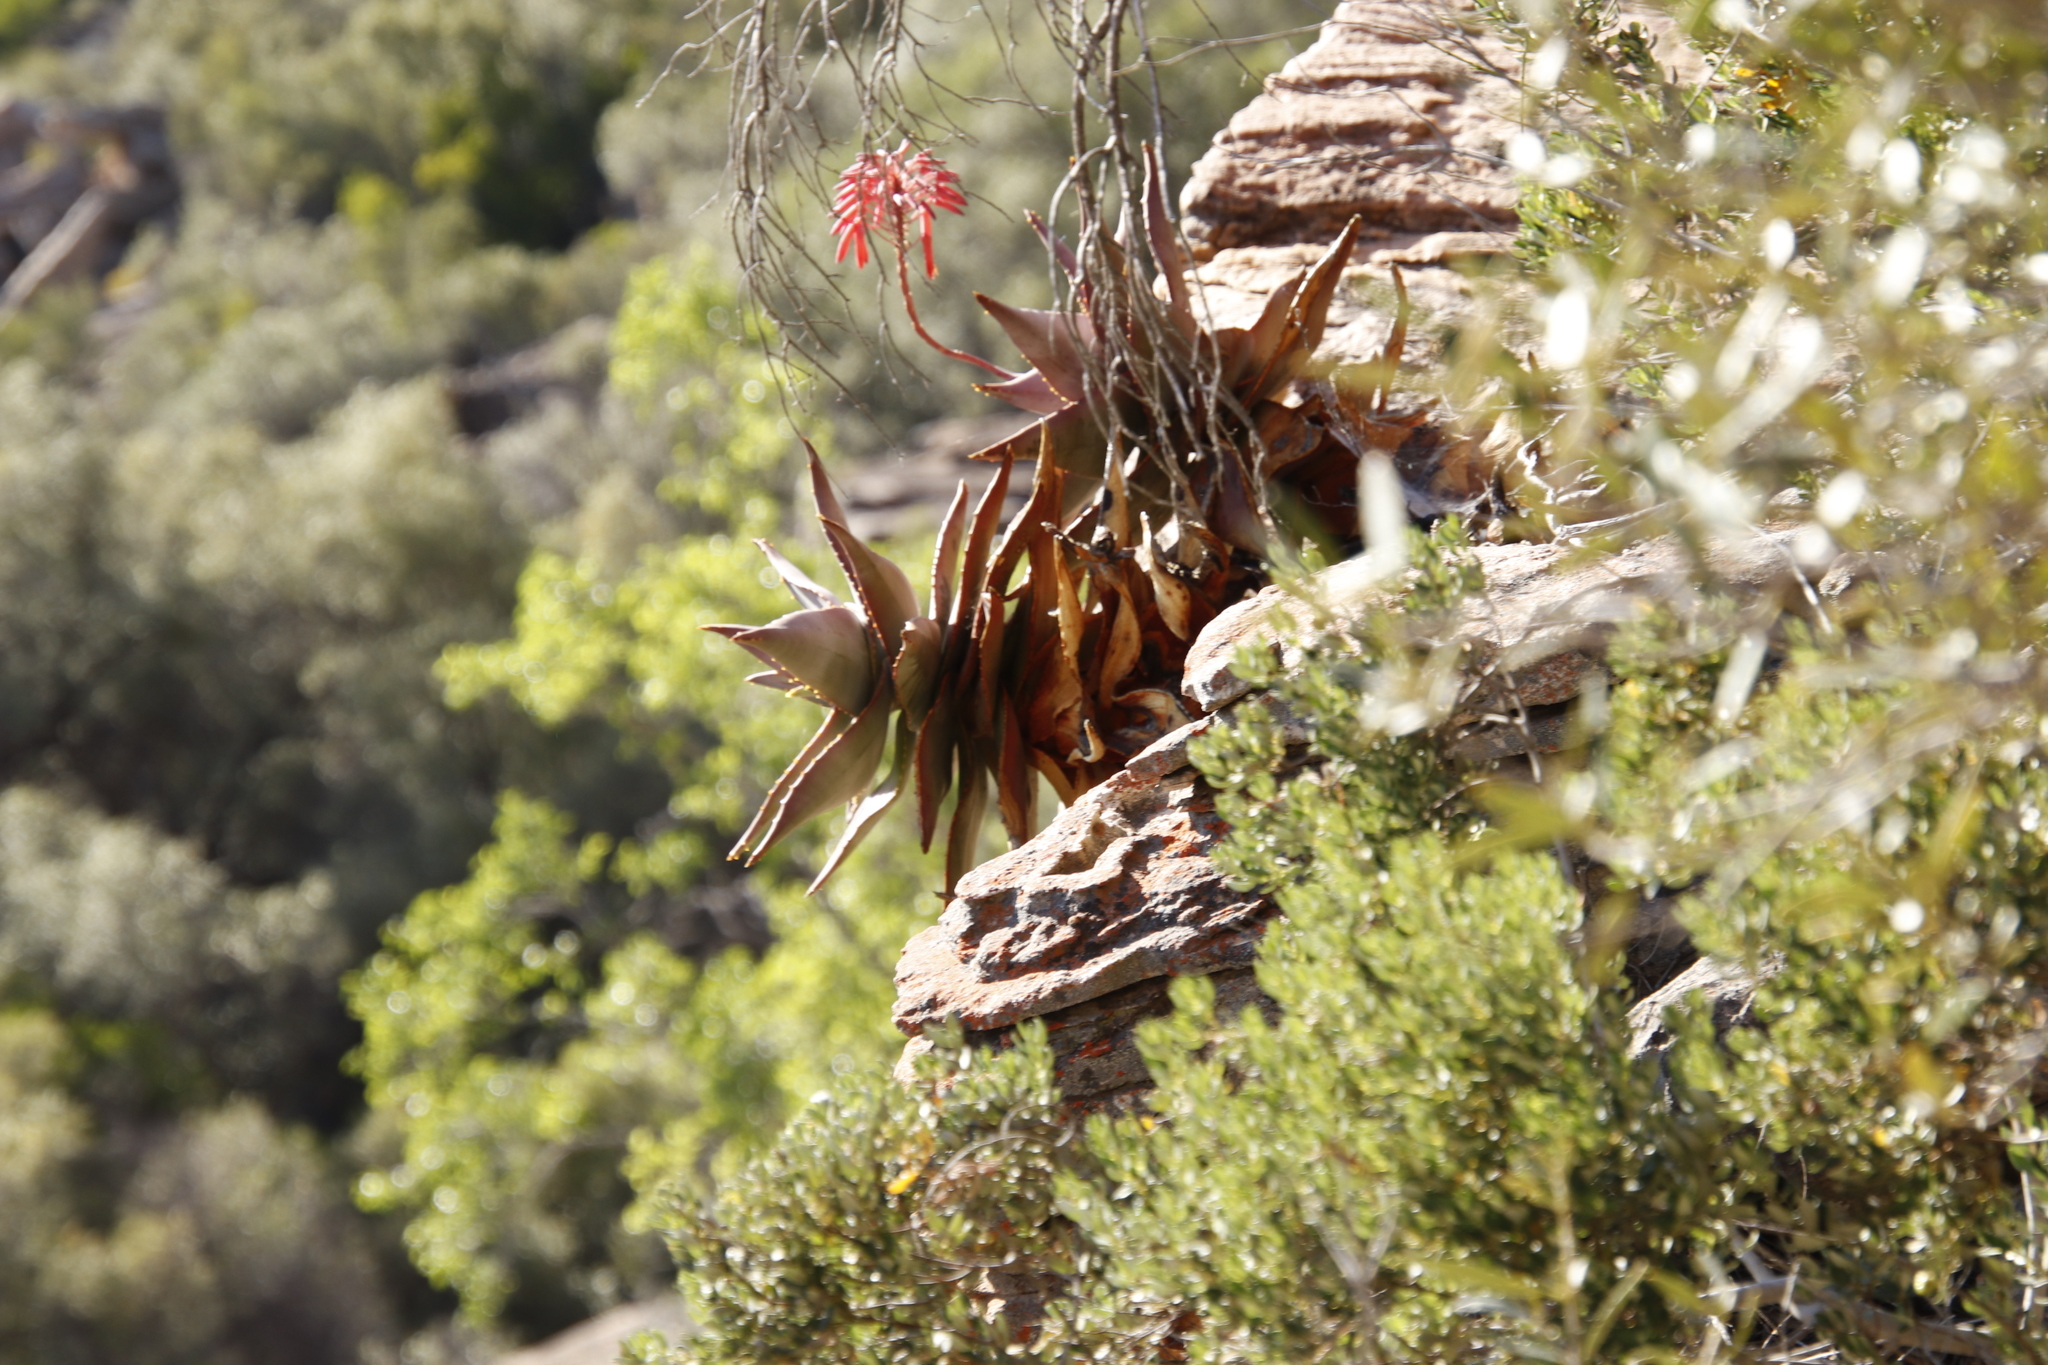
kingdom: Plantae
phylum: Tracheophyta
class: Liliopsida
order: Asparagales
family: Asphodelaceae
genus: Aloe
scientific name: Aloe perfoliata
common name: Mitra aloe
